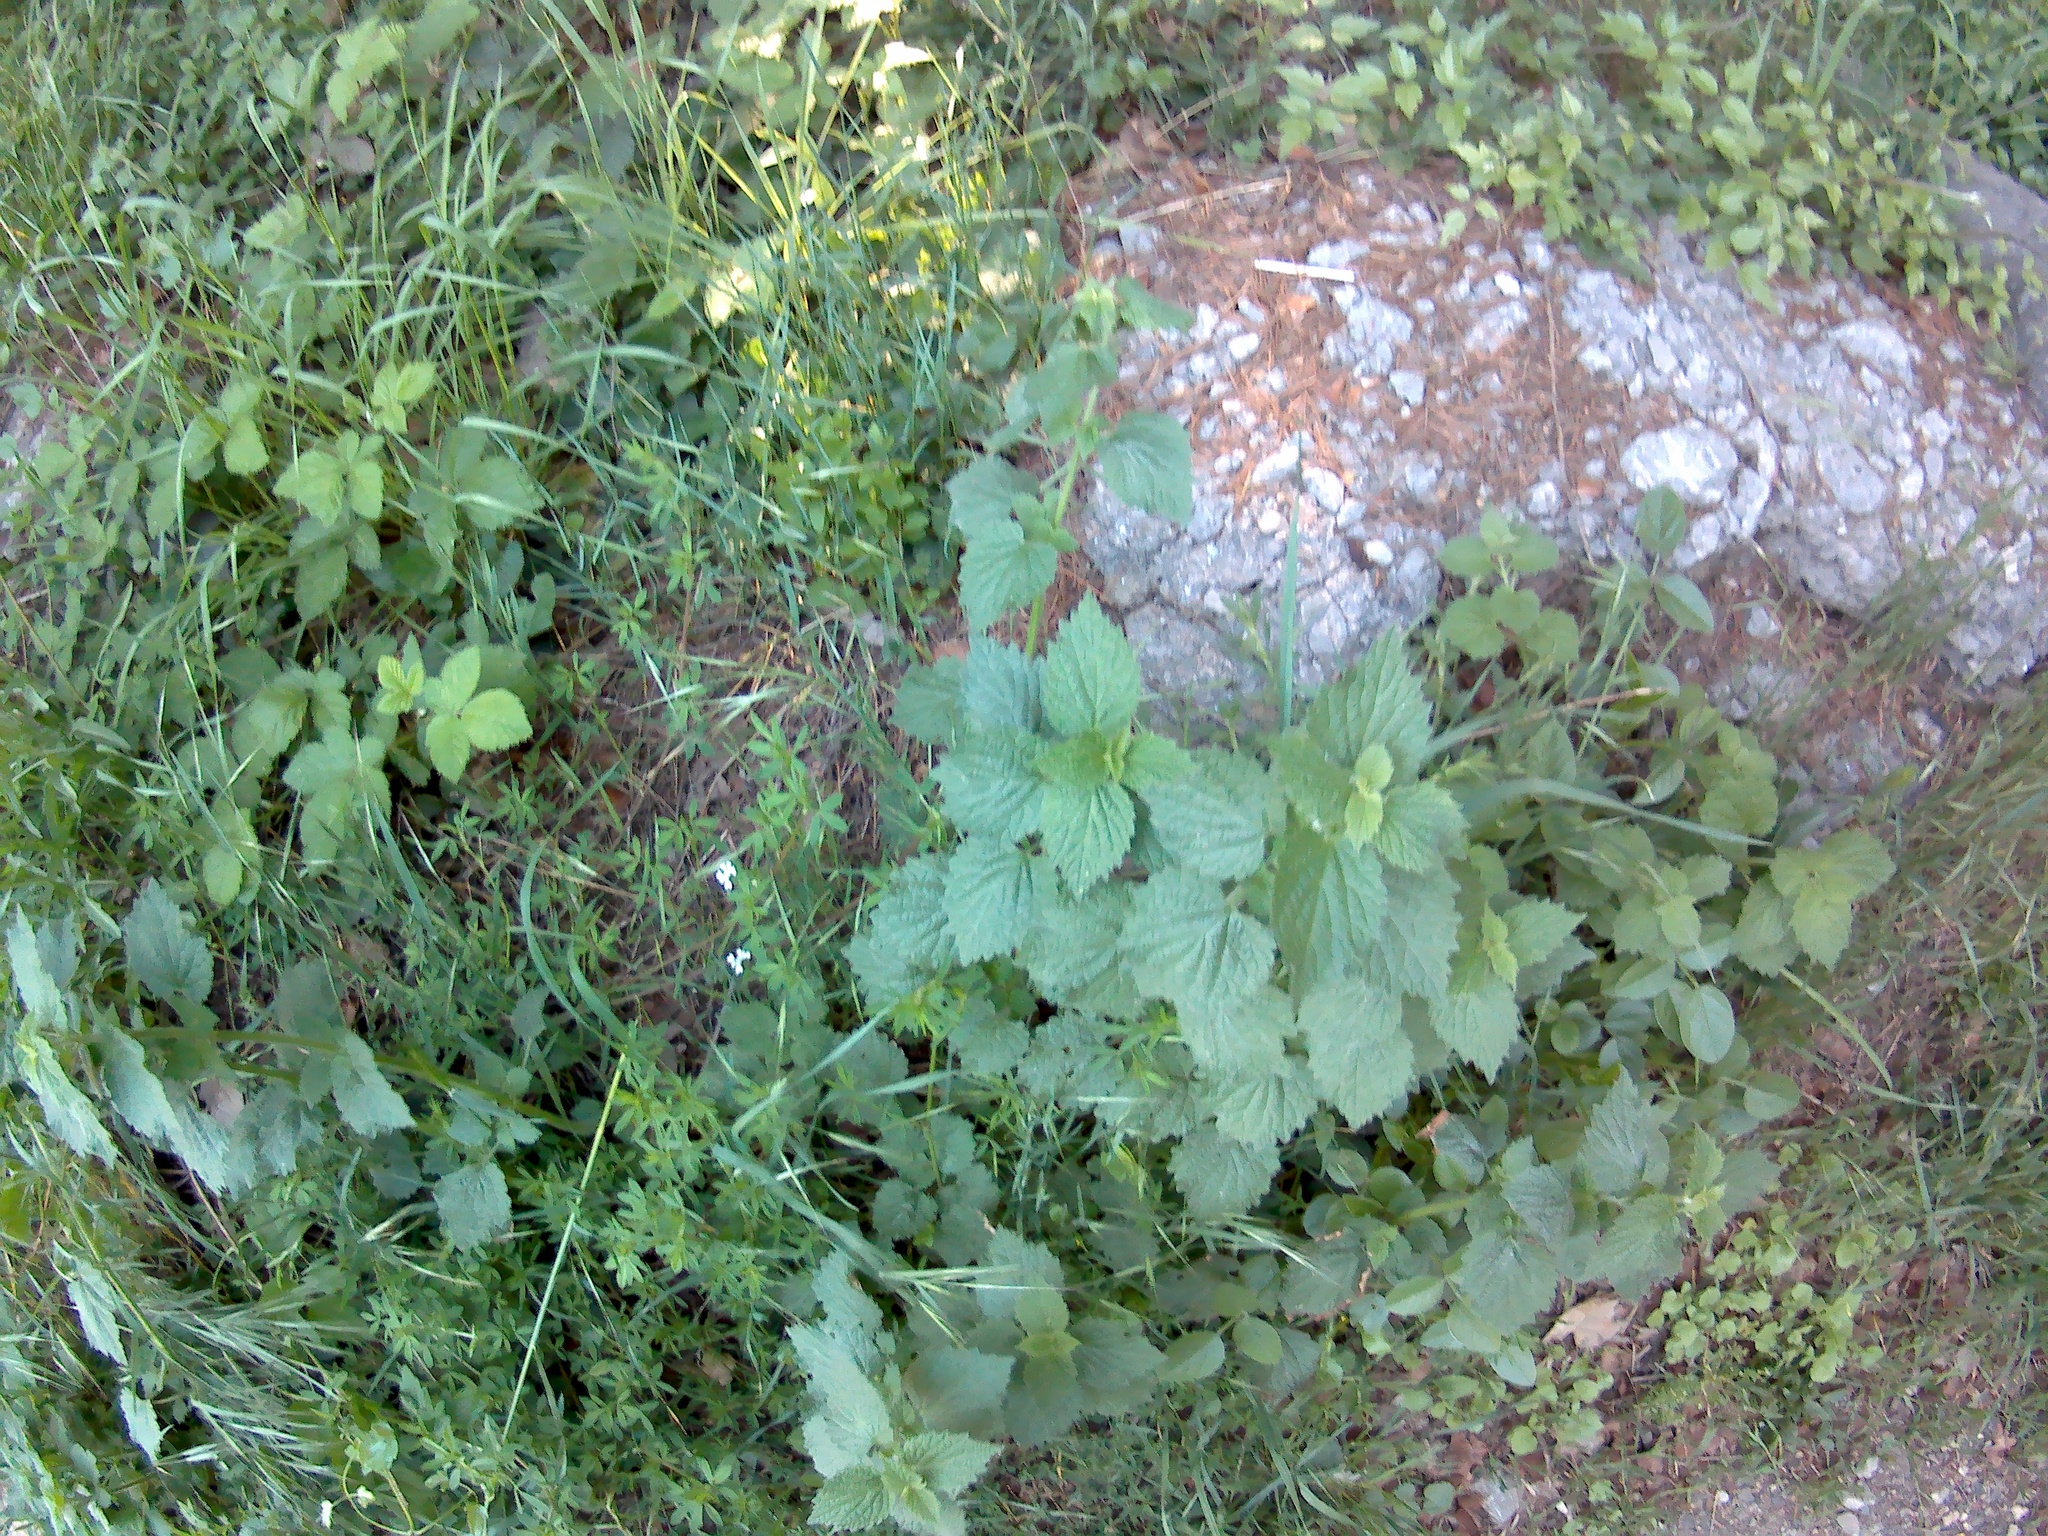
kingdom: Plantae
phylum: Tracheophyta
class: Magnoliopsida
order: Lamiales
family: Lamiaceae
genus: Ballota
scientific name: Ballota nigra
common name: Black horehound
